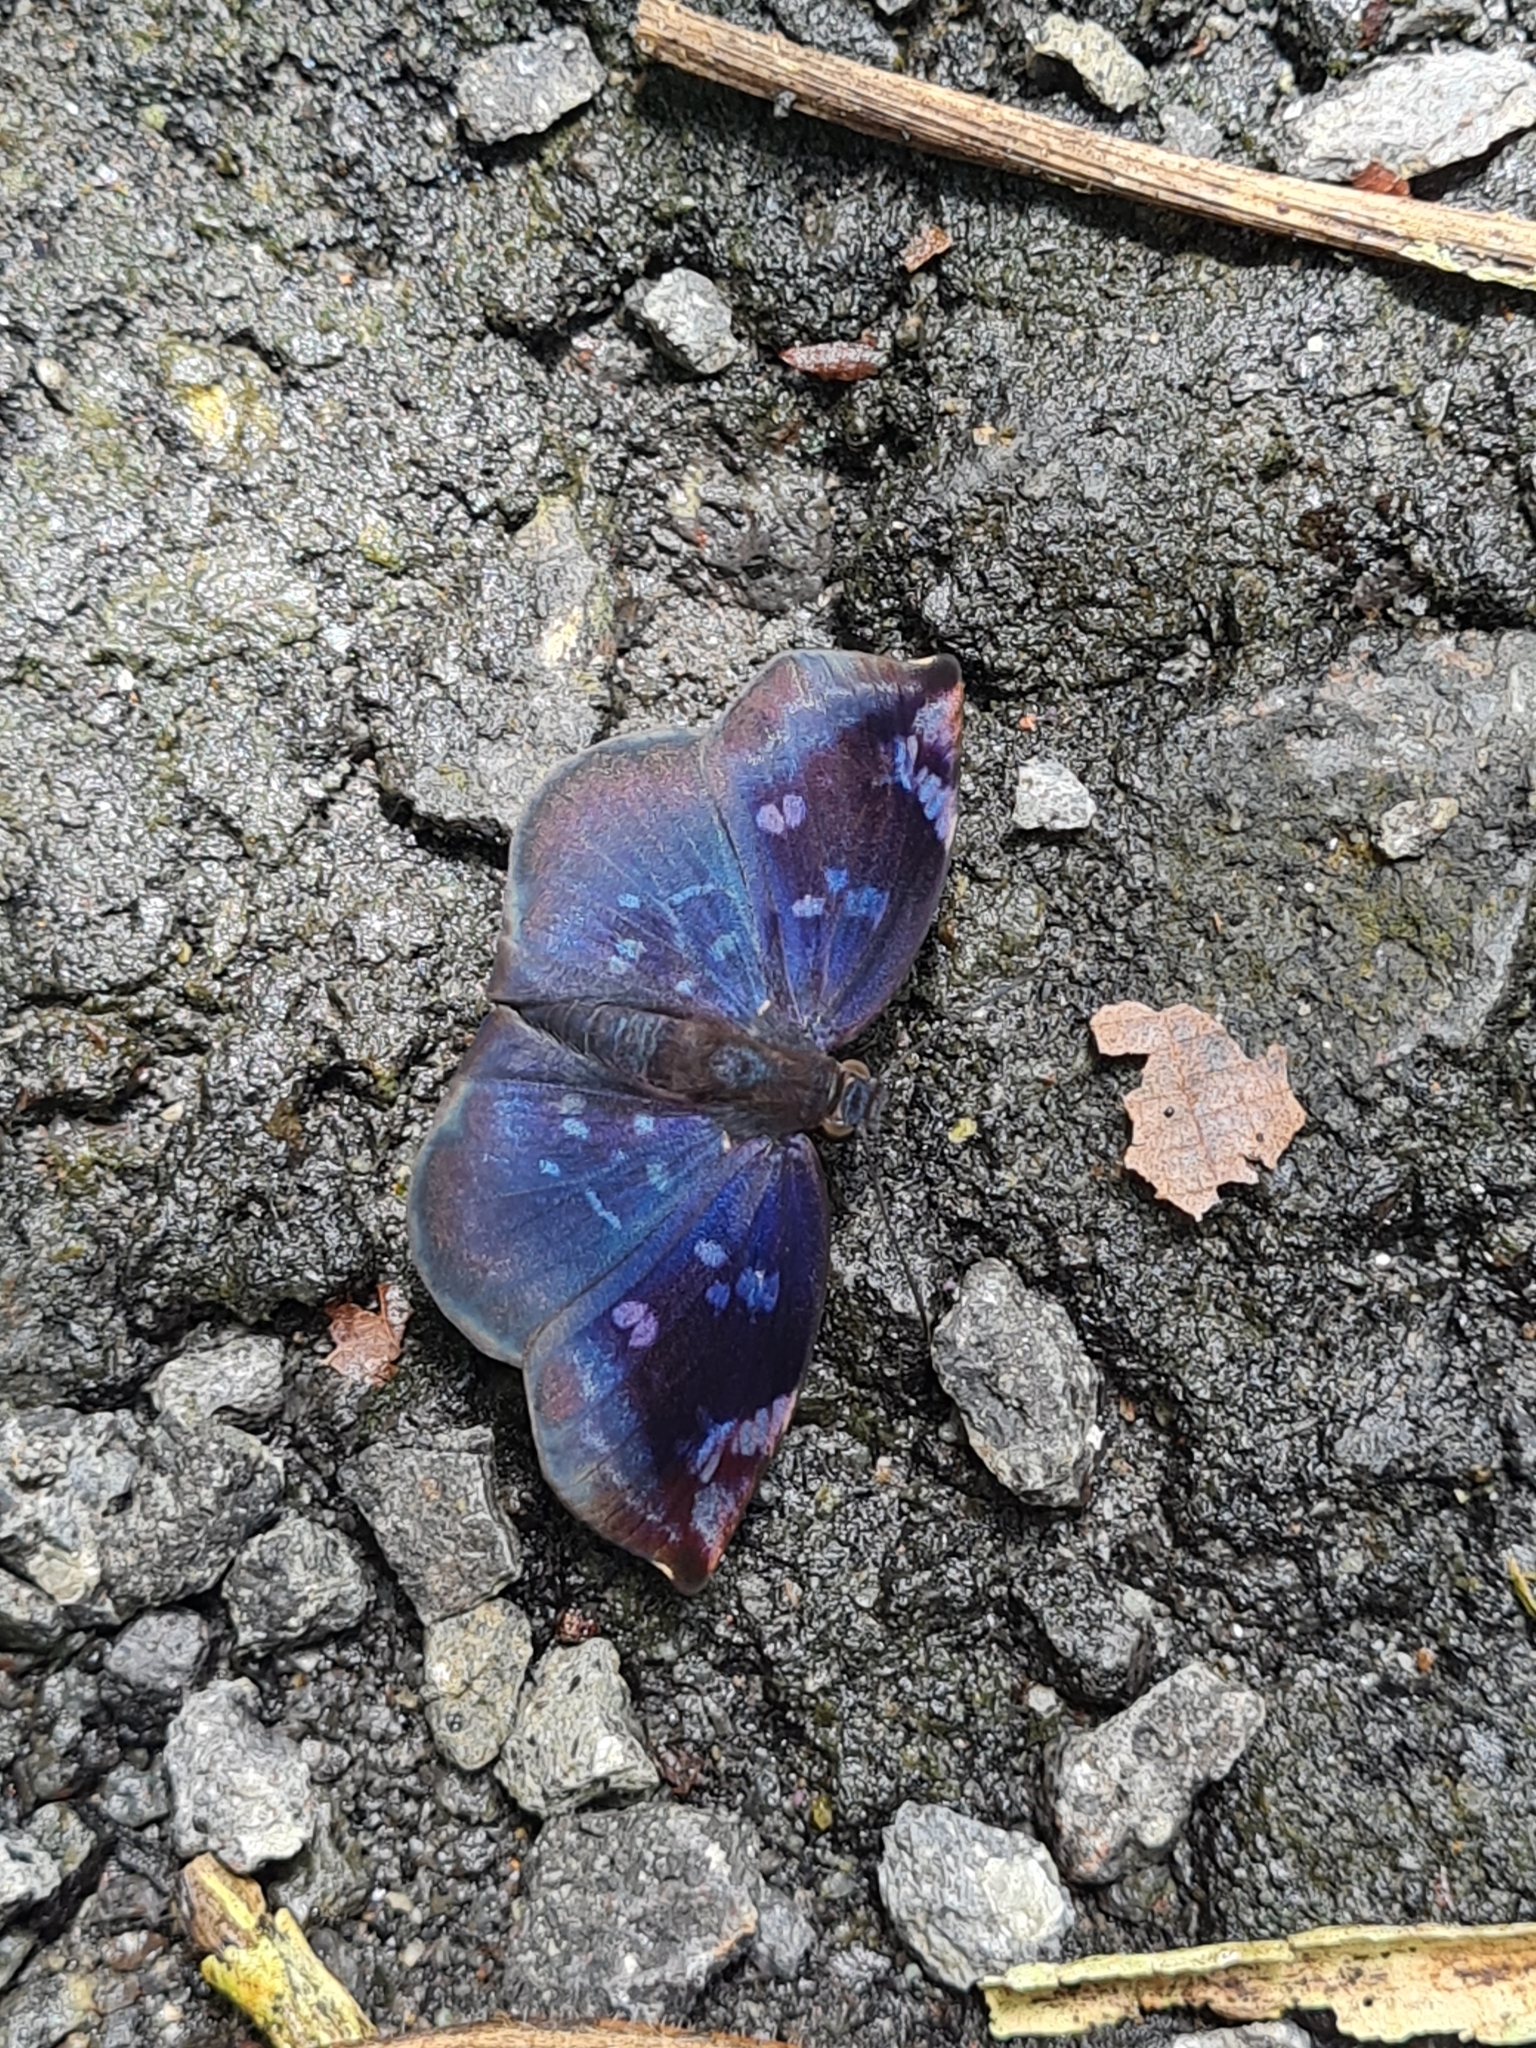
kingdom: Animalia
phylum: Arthropoda
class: Insecta
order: Lepidoptera
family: Hesperiidae
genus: Achlyodes
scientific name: Achlyodes thraso
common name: Sickle-winged skipper
